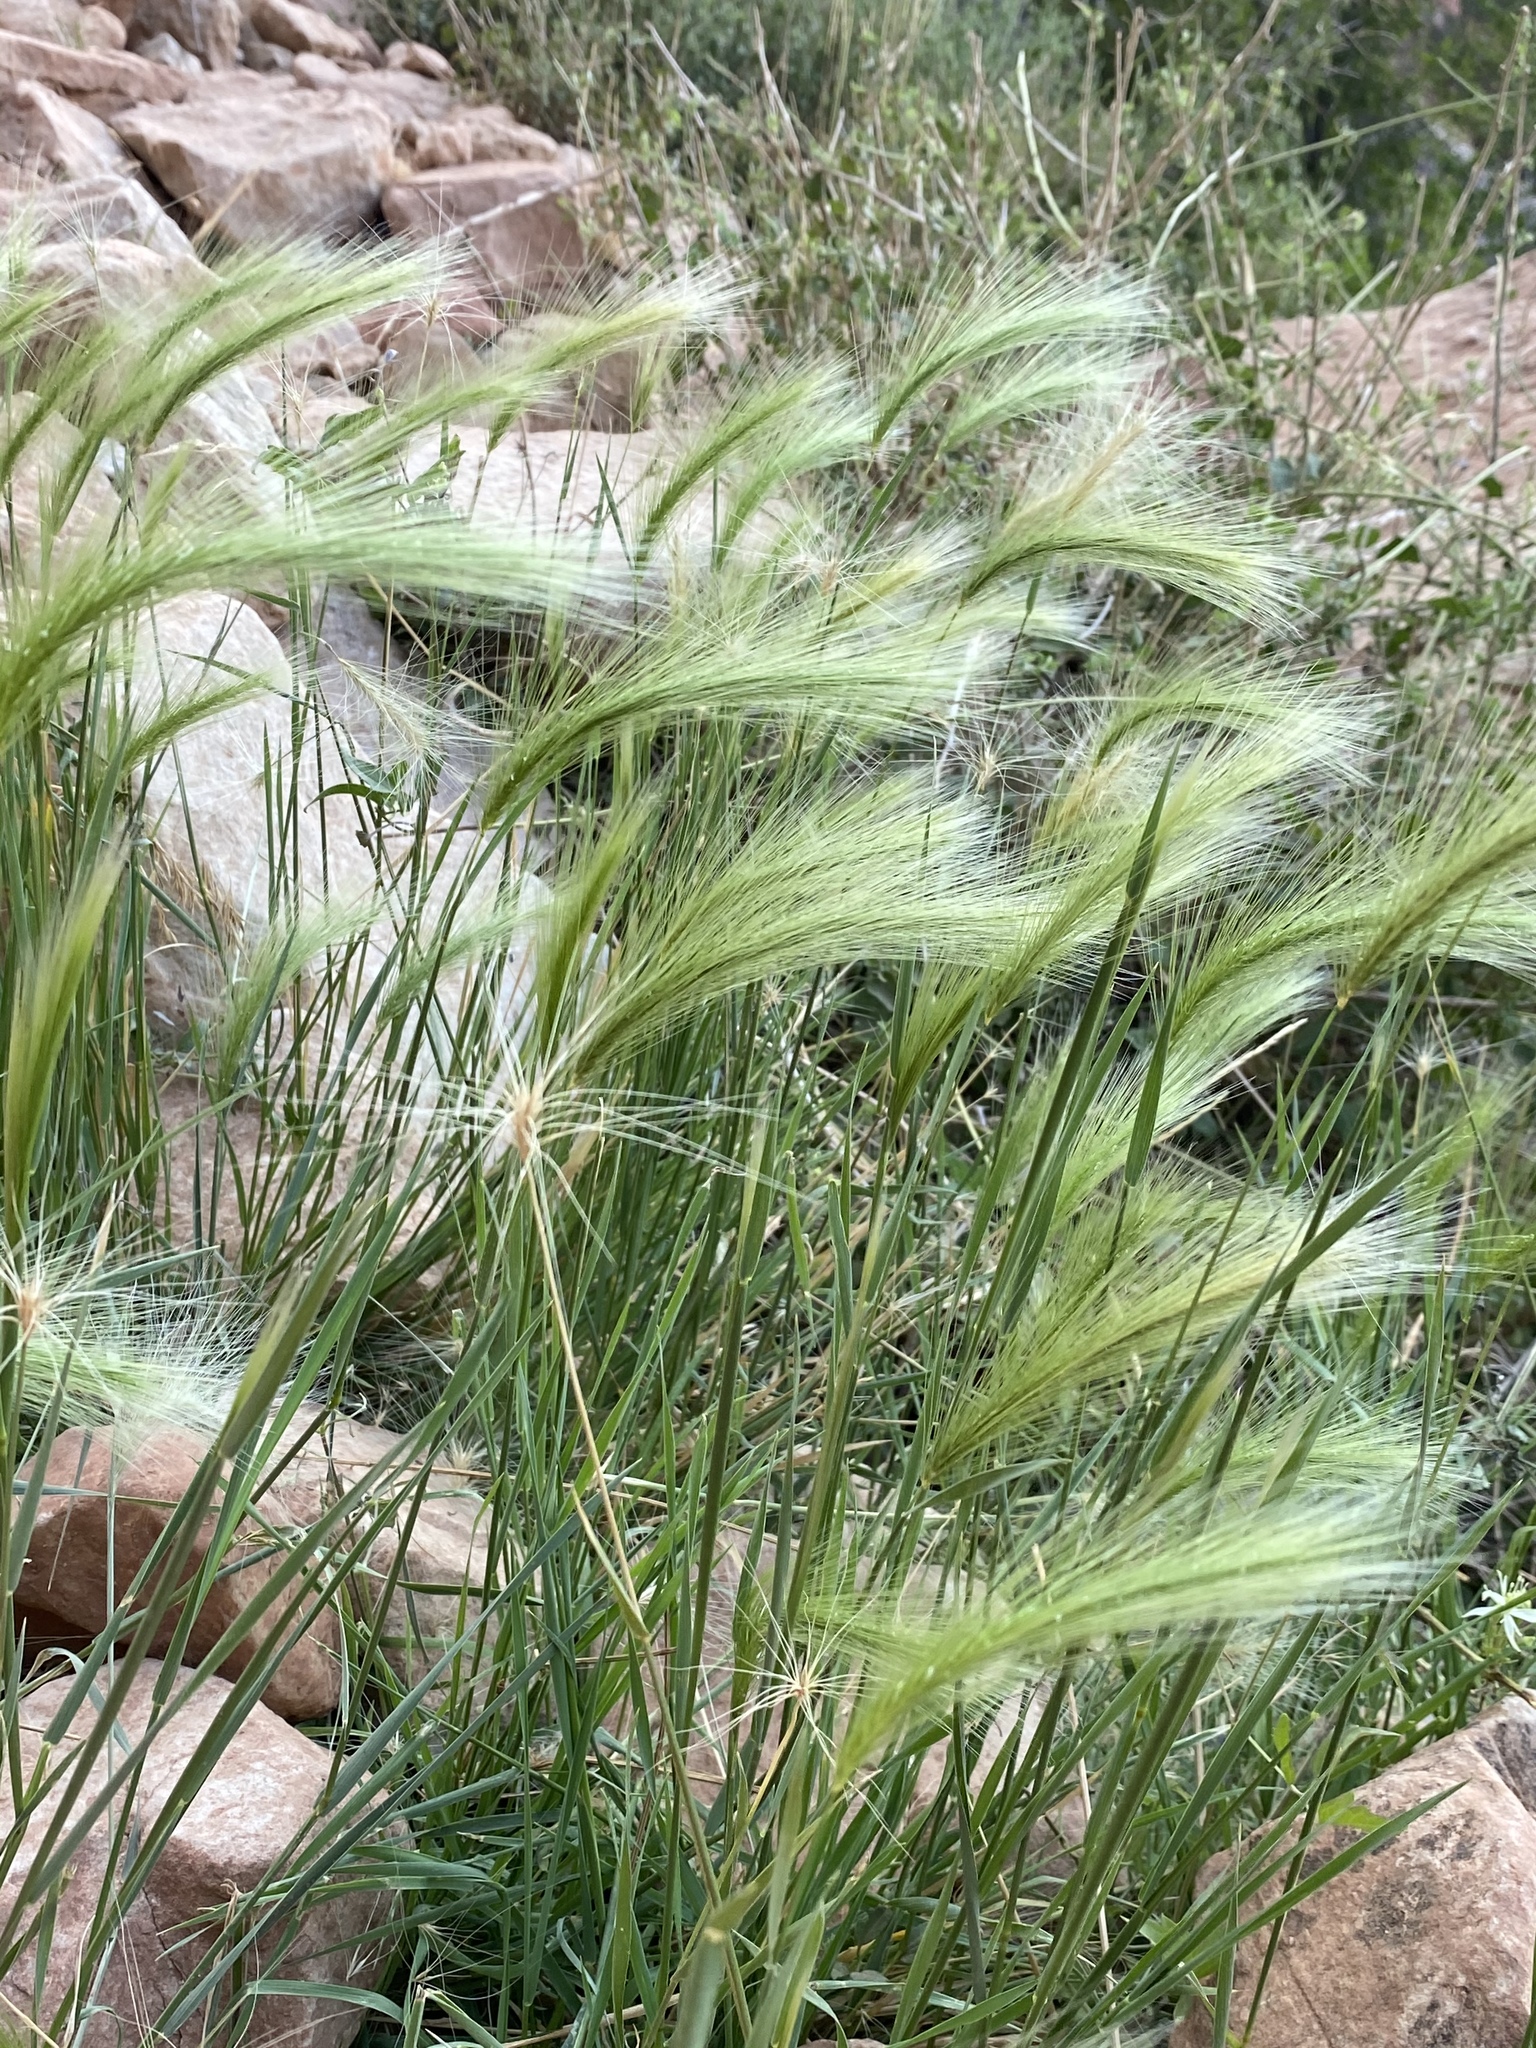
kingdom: Plantae
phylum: Tracheophyta
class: Liliopsida
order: Poales
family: Poaceae
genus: Hordeum
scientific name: Hordeum jubatum
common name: Foxtail barley
